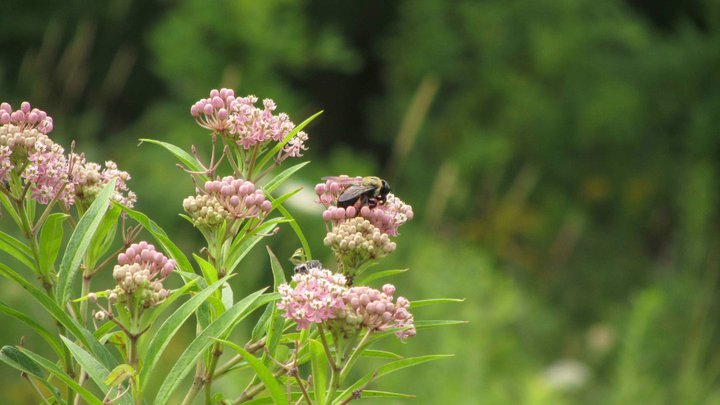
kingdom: Animalia
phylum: Arthropoda
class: Insecta
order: Hymenoptera
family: Apidae
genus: Xylocopa
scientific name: Xylocopa virginica
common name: Carpenter bee
